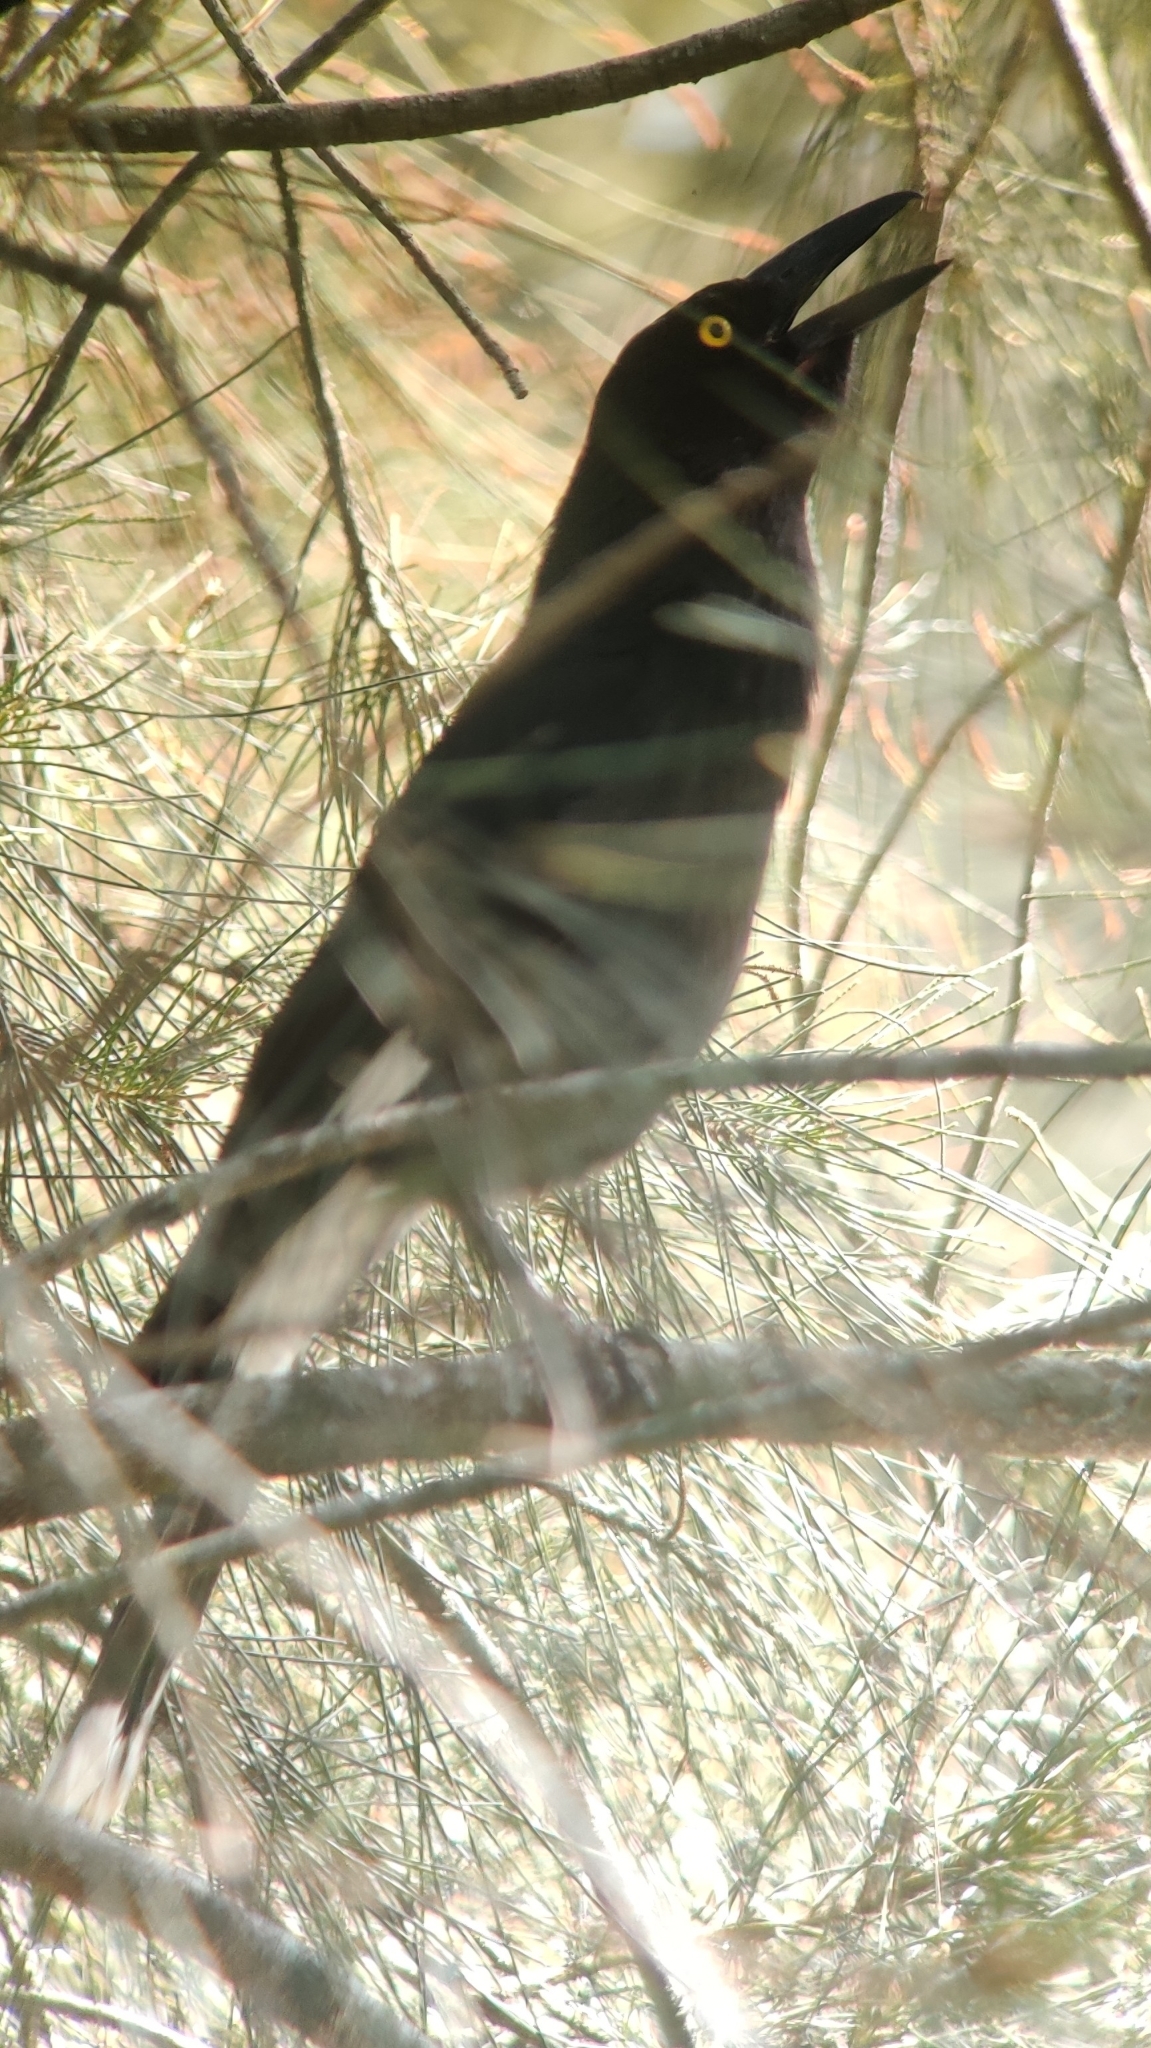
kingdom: Animalia
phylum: Chordata
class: Aves
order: Passeriformes
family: Cracticidae
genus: Strepera
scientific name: Strepera graculina
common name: Pied currawong
